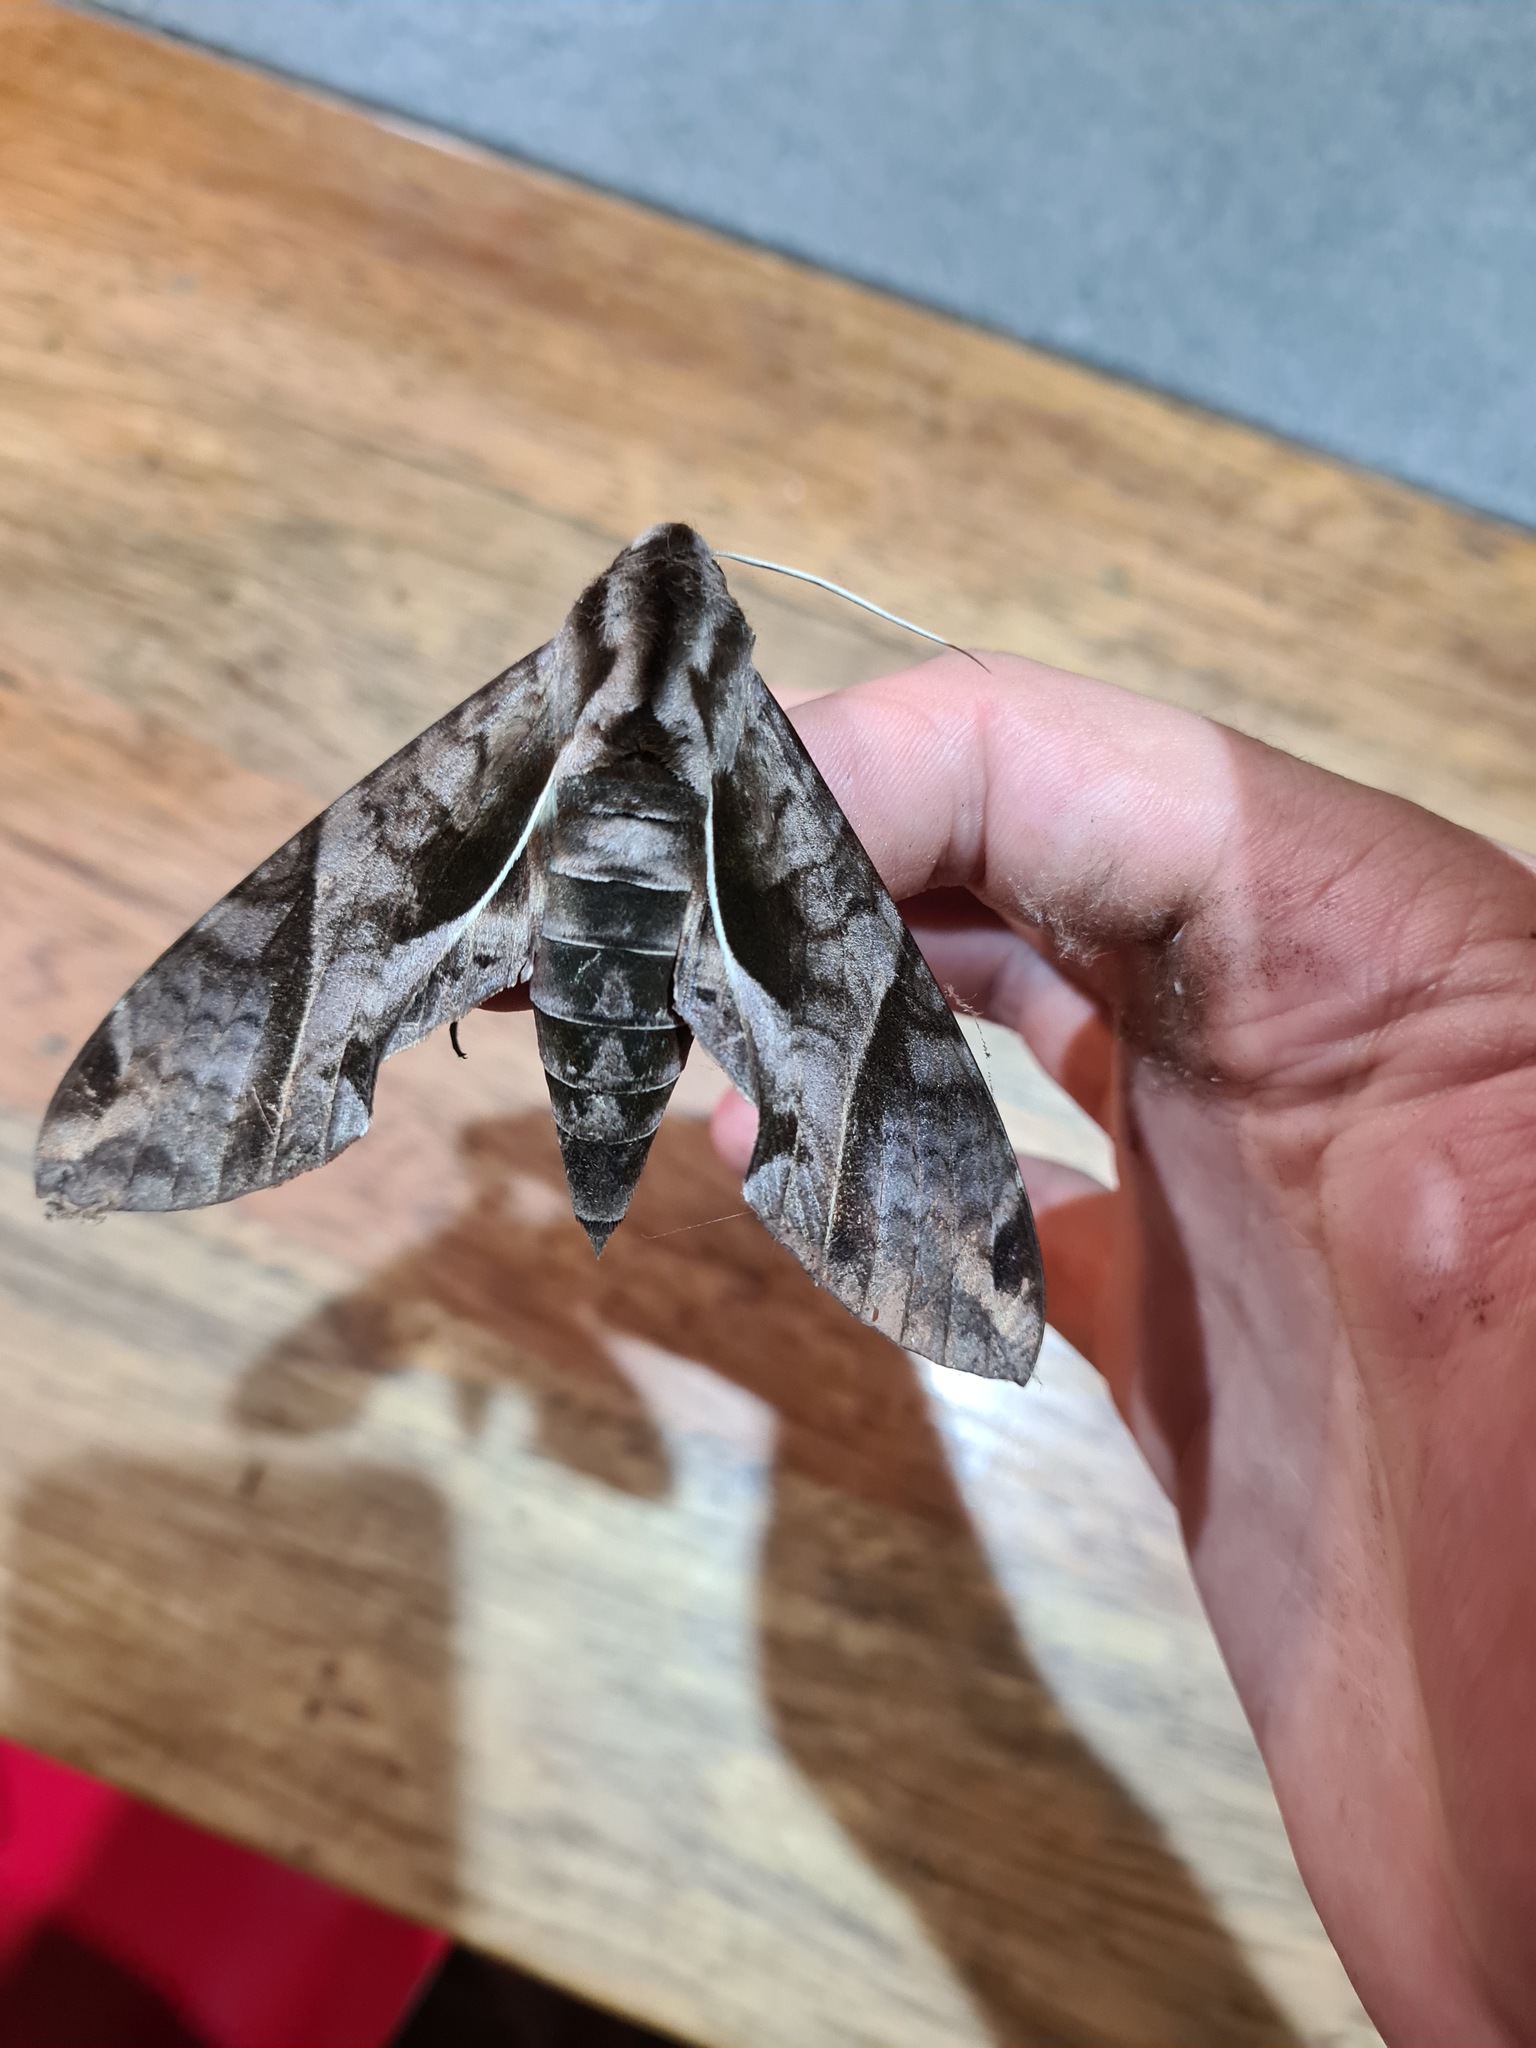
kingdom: Animalia
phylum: Arthropoda
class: Insecta
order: Lepidoptera
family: Sphingidae
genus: Eumorpha
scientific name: Eumorpha anchemolus
